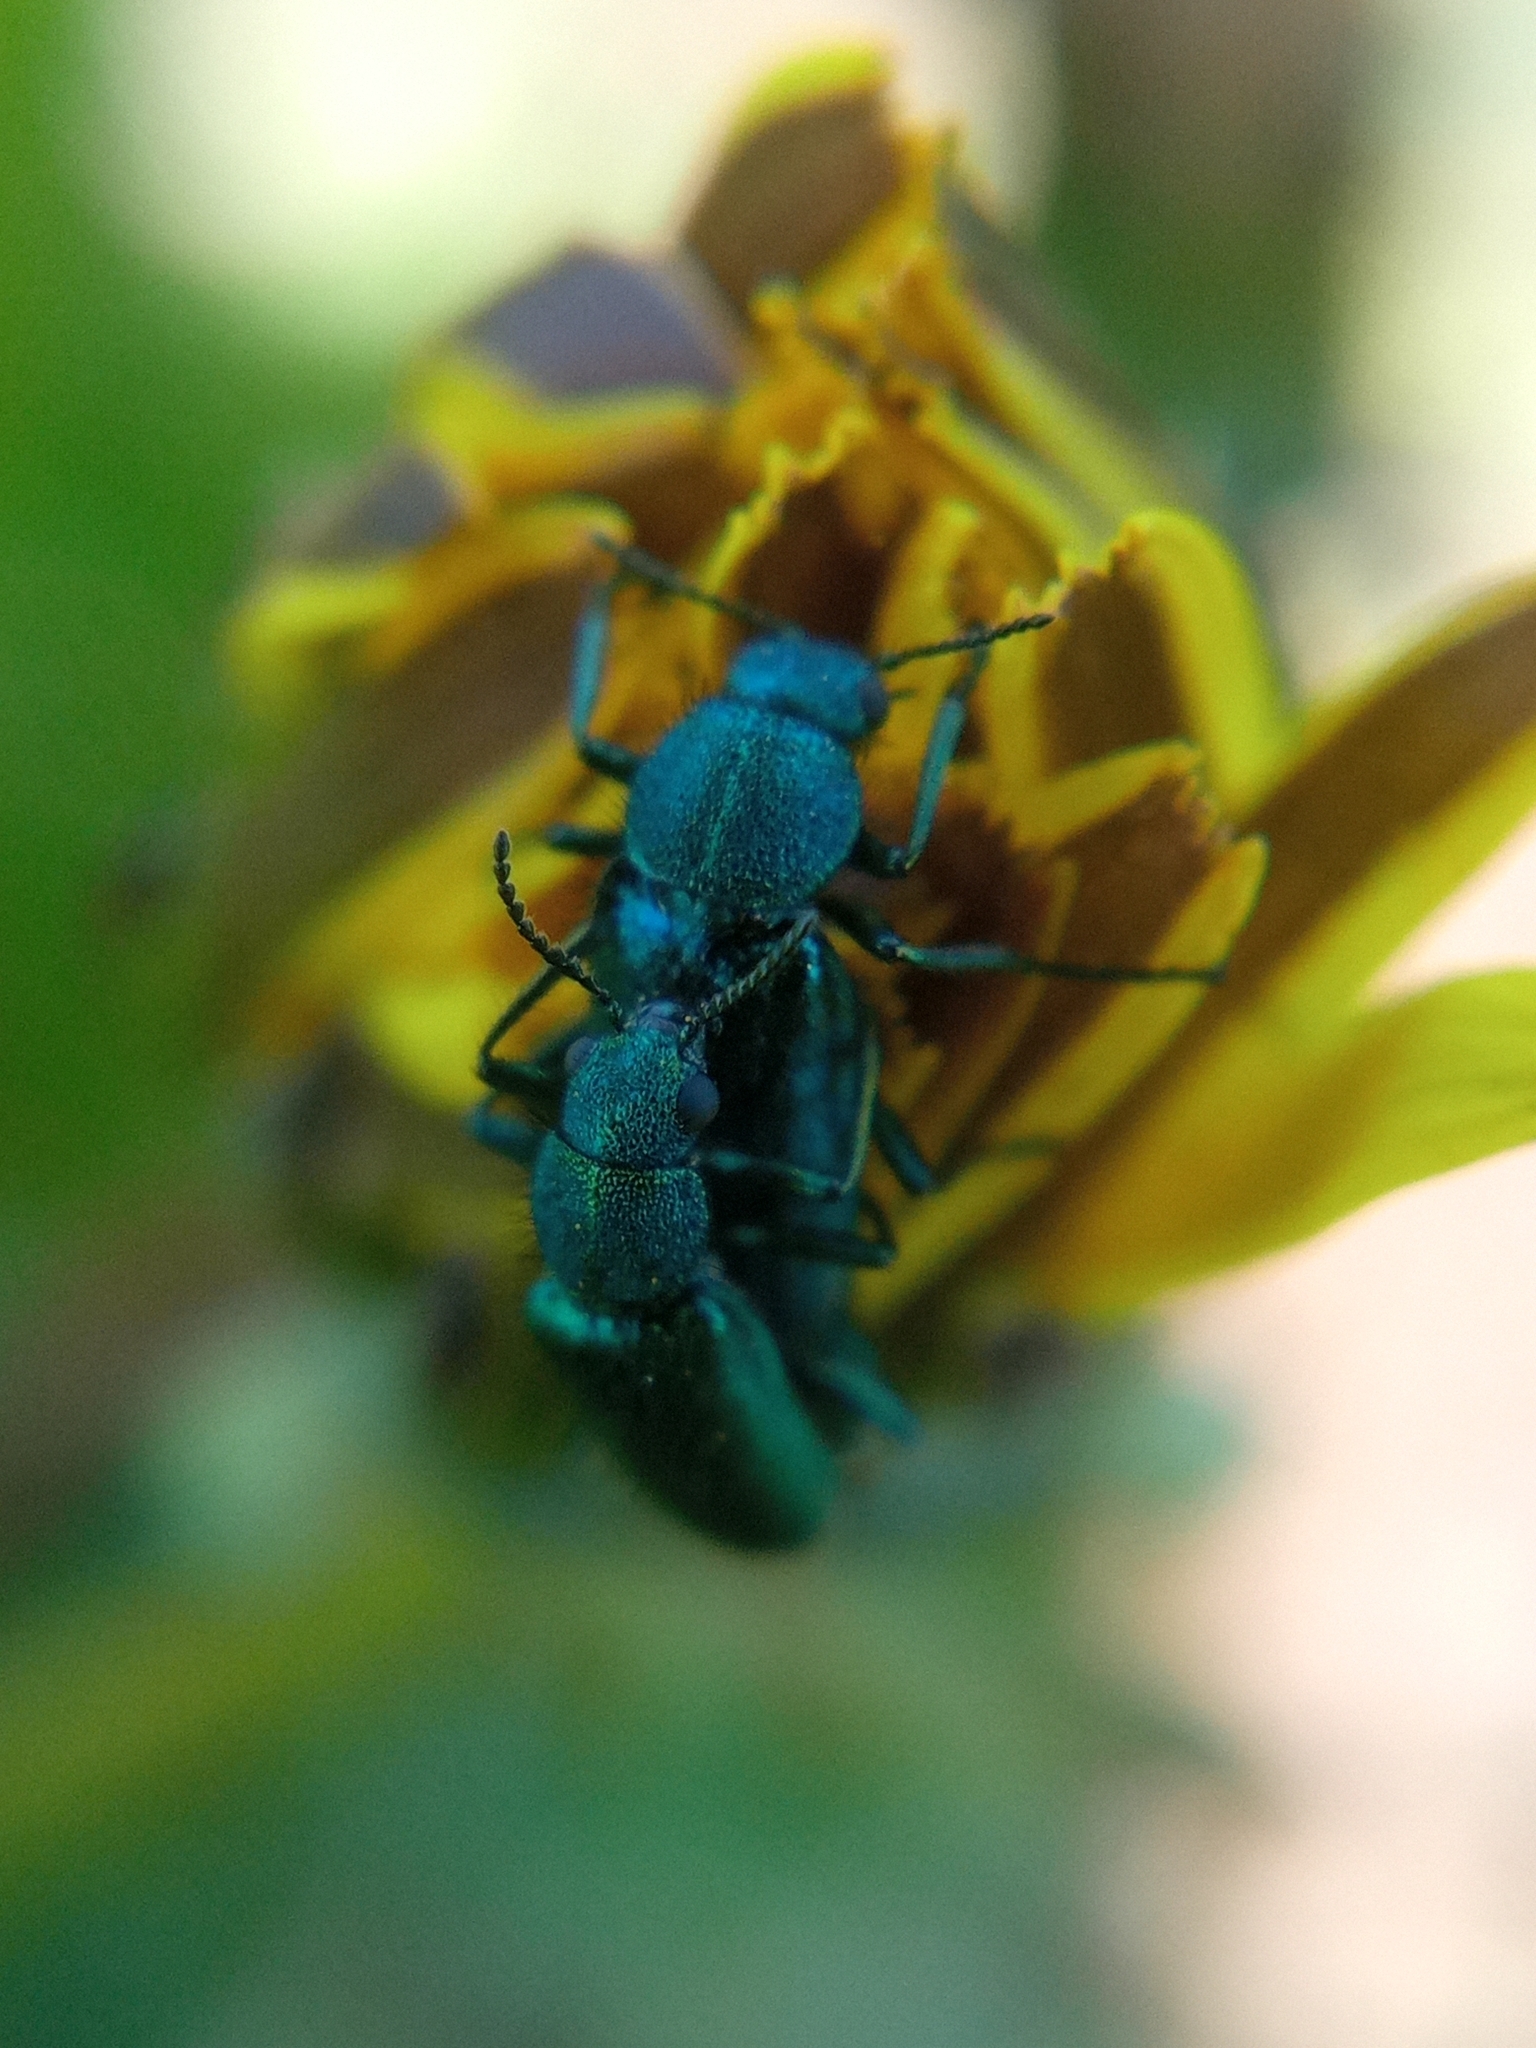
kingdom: Animalia
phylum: Arthropoda
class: Insecta
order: Coleoptera
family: Dasytidae
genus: Psilothrix
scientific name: Psilothrix viridicoerulea
